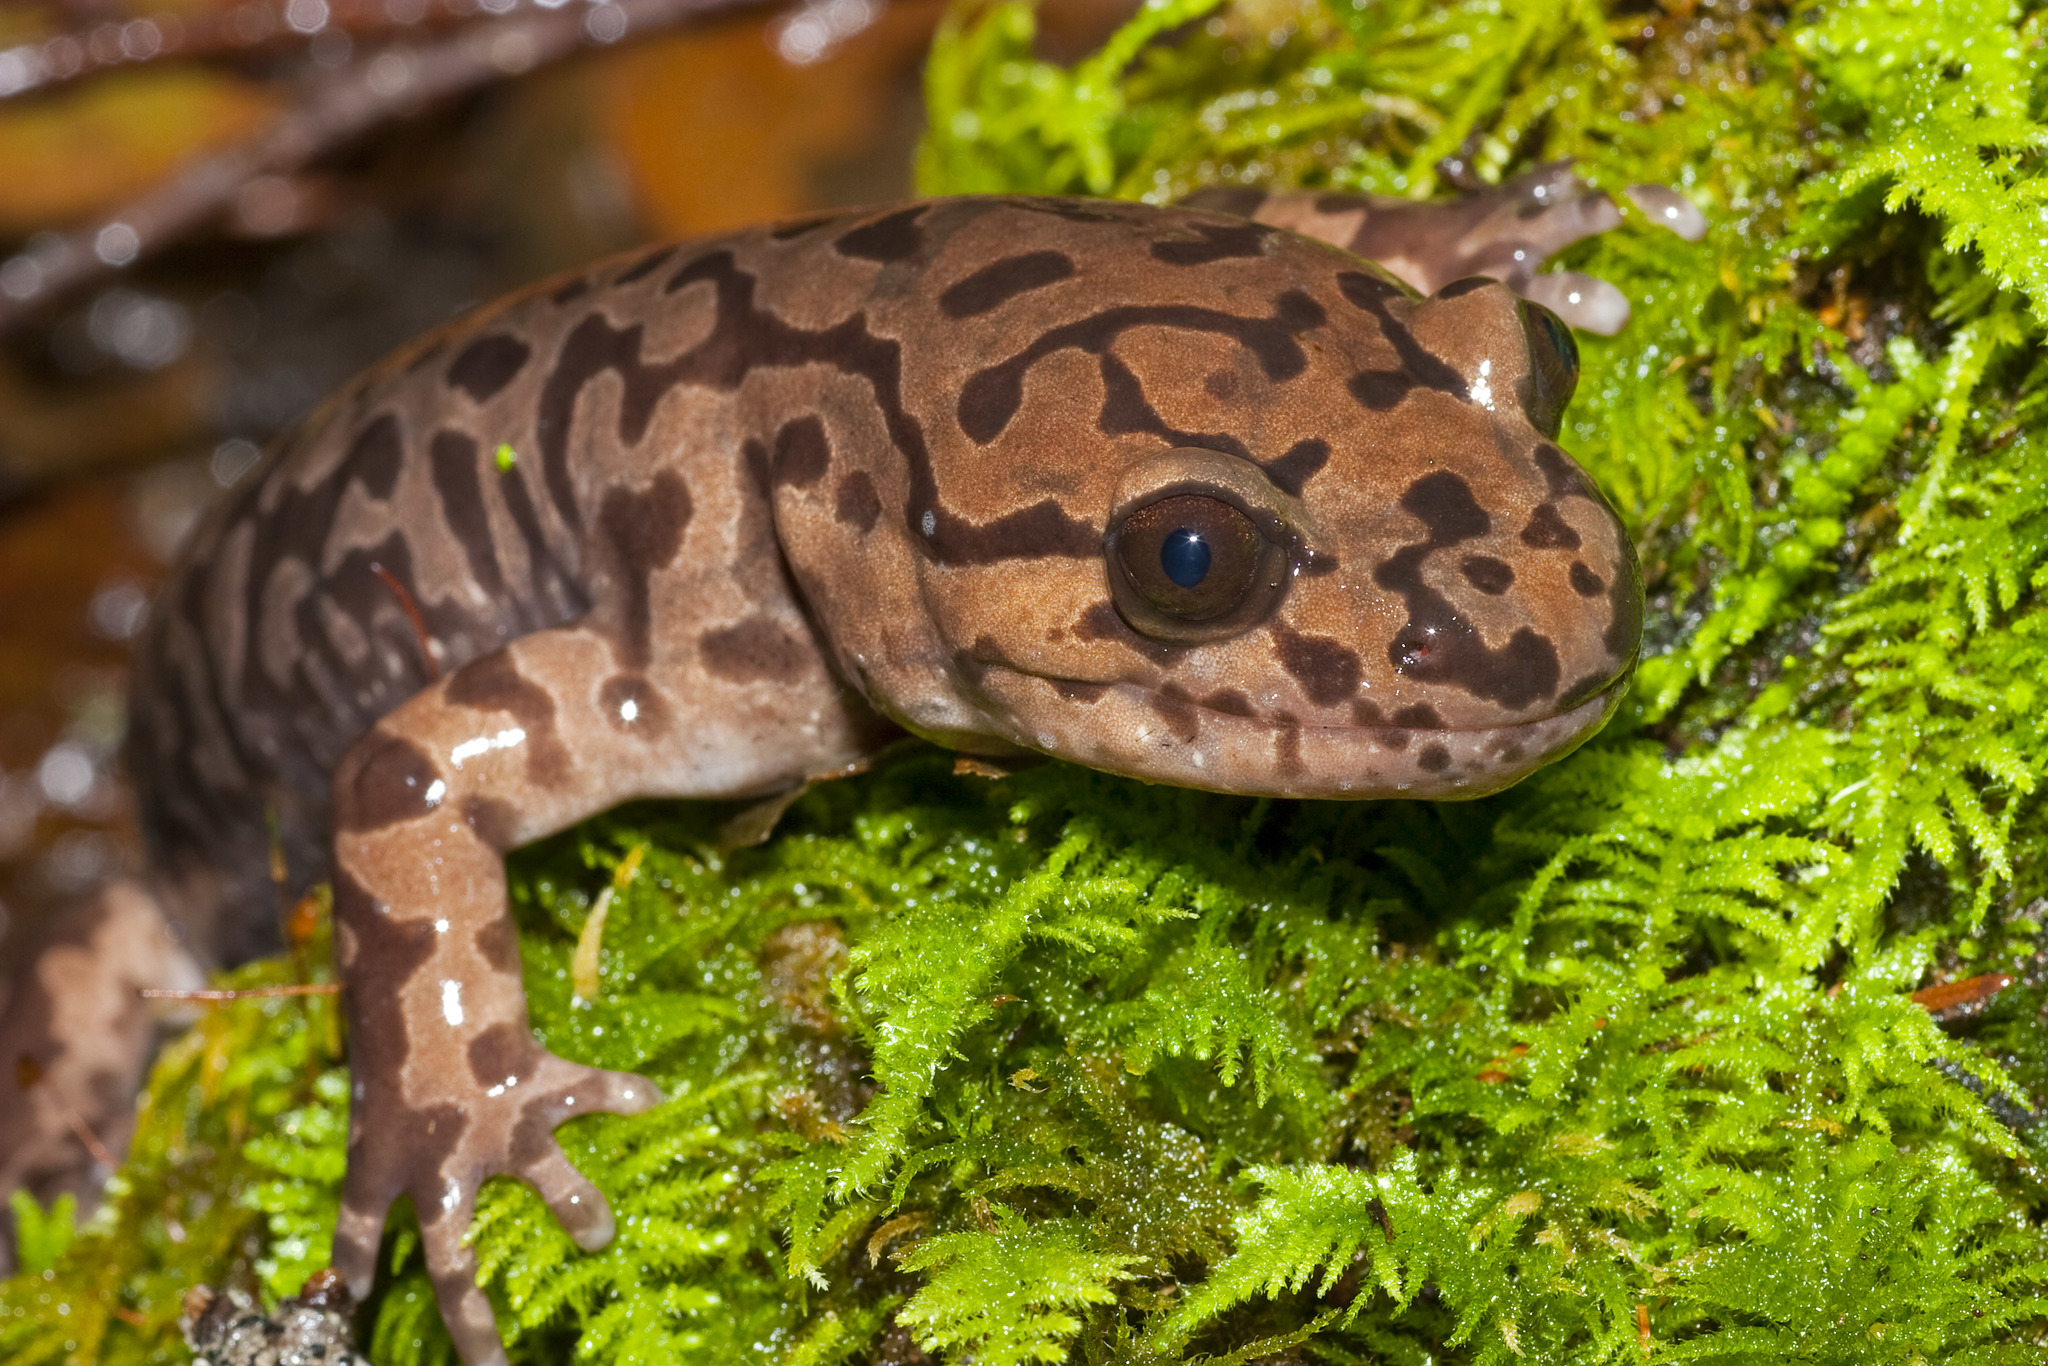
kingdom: Animalia
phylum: Chordata
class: Amphibia
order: Caudata
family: Ambystomatidae
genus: Dicamptodon
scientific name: Dicamptodon tenebrosus
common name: Coastal giant salamander
